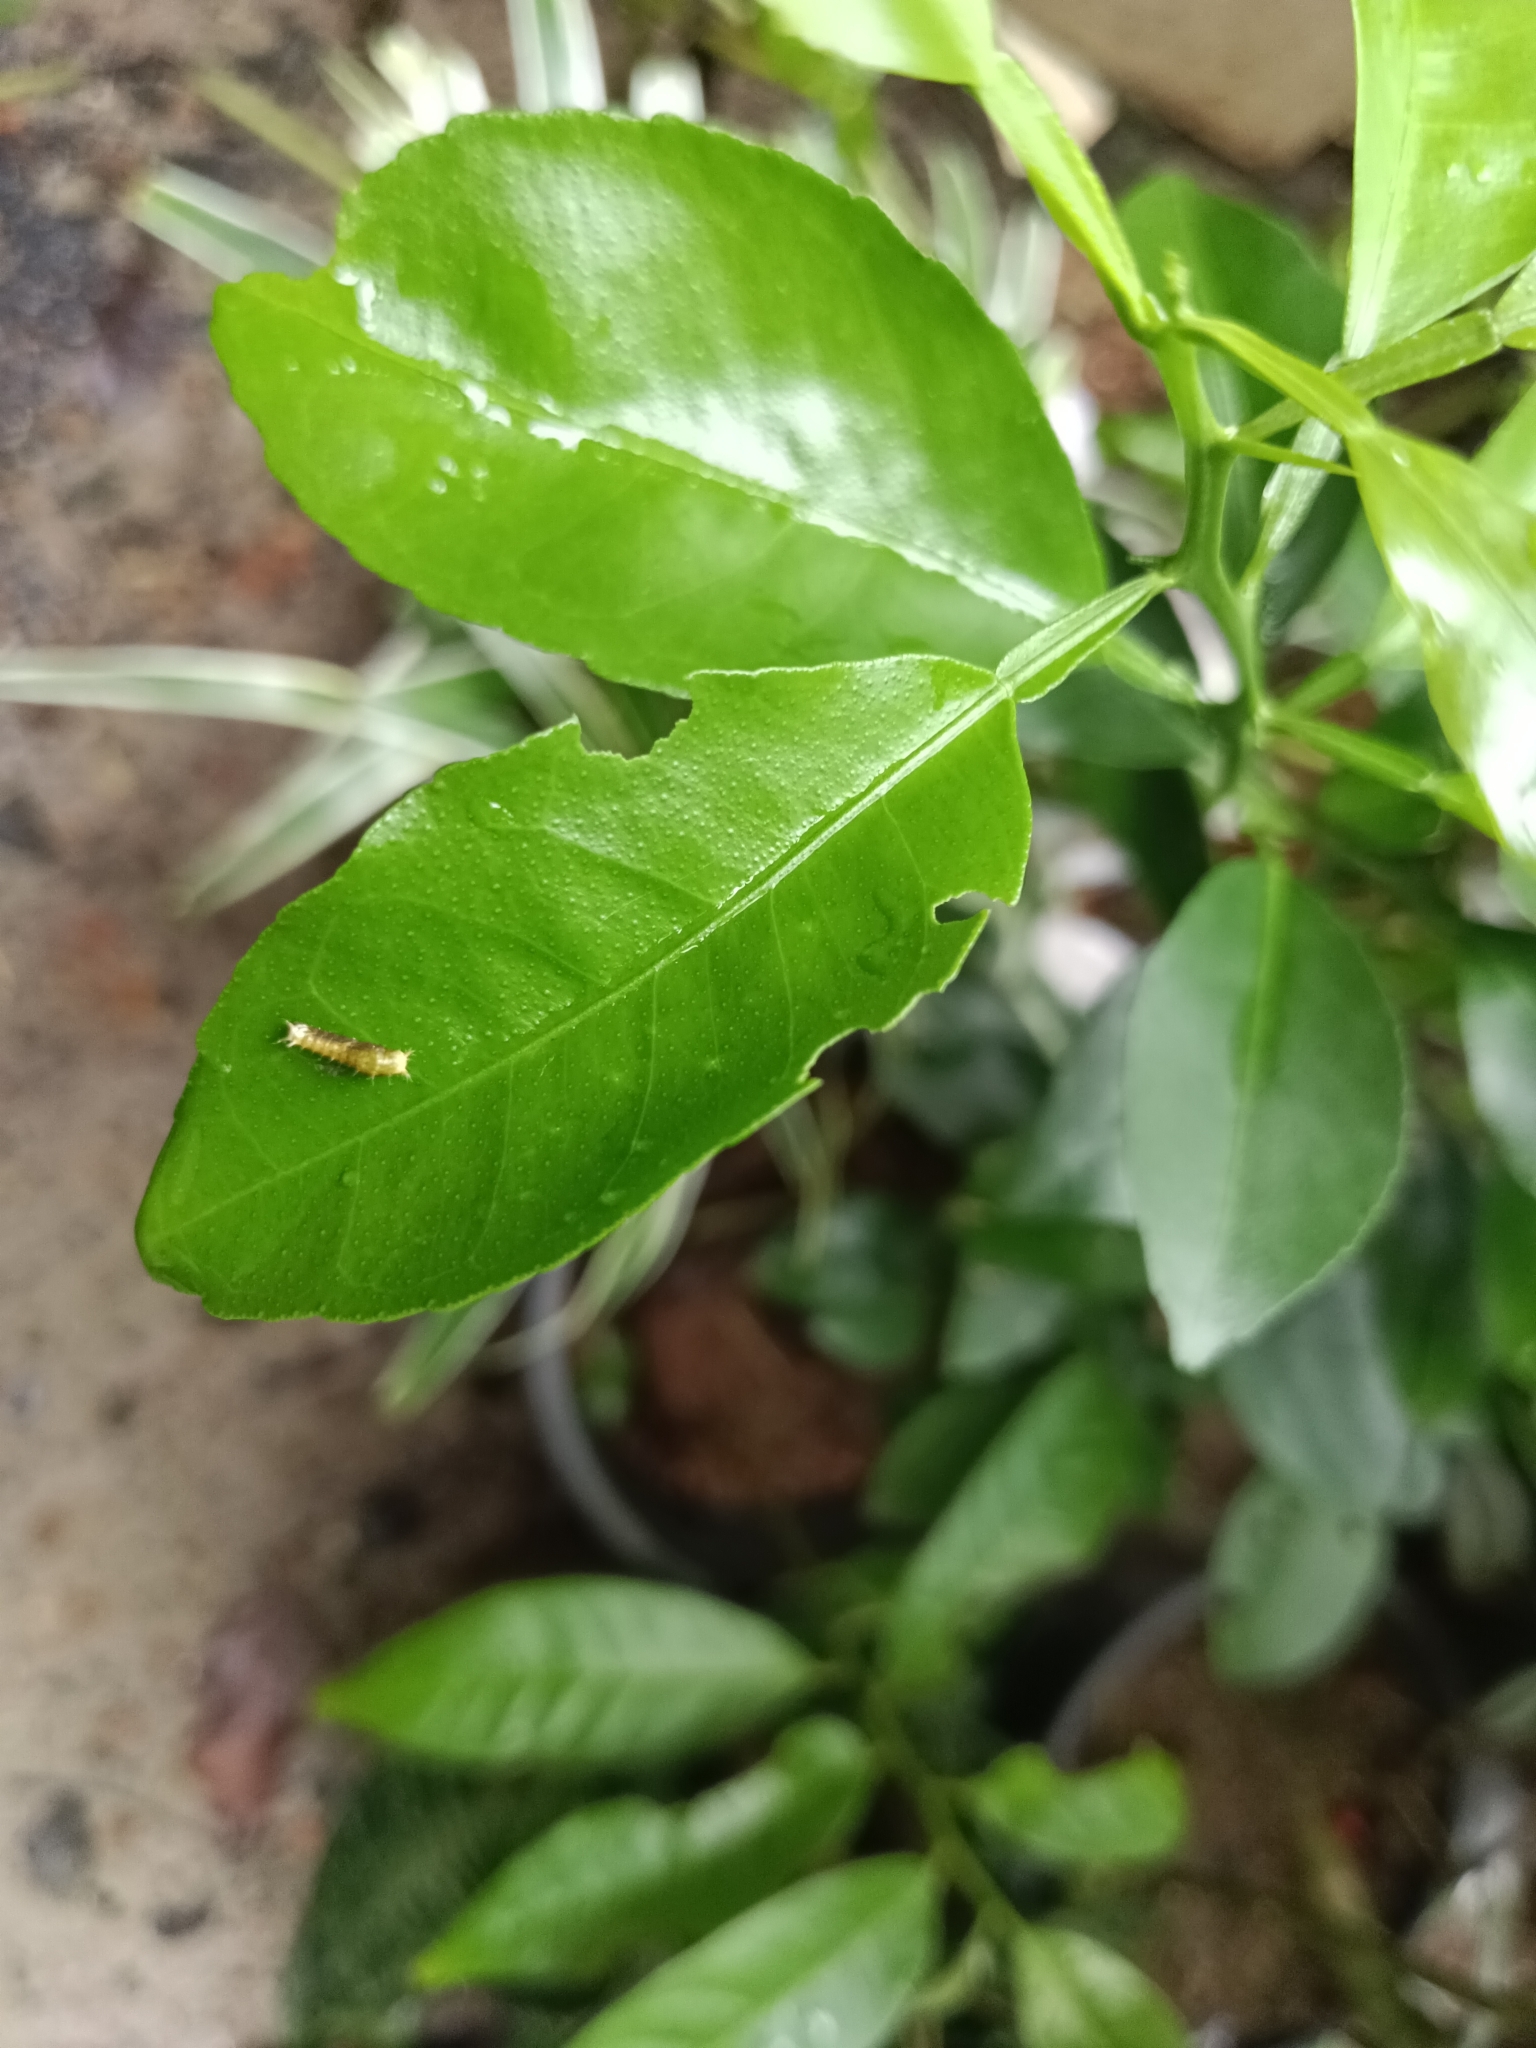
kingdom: Animalia
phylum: Arthropoda
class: Insecta
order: Lepidoptera
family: Papilionidae
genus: Papilio
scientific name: Papilio polytes
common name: Common mormon
